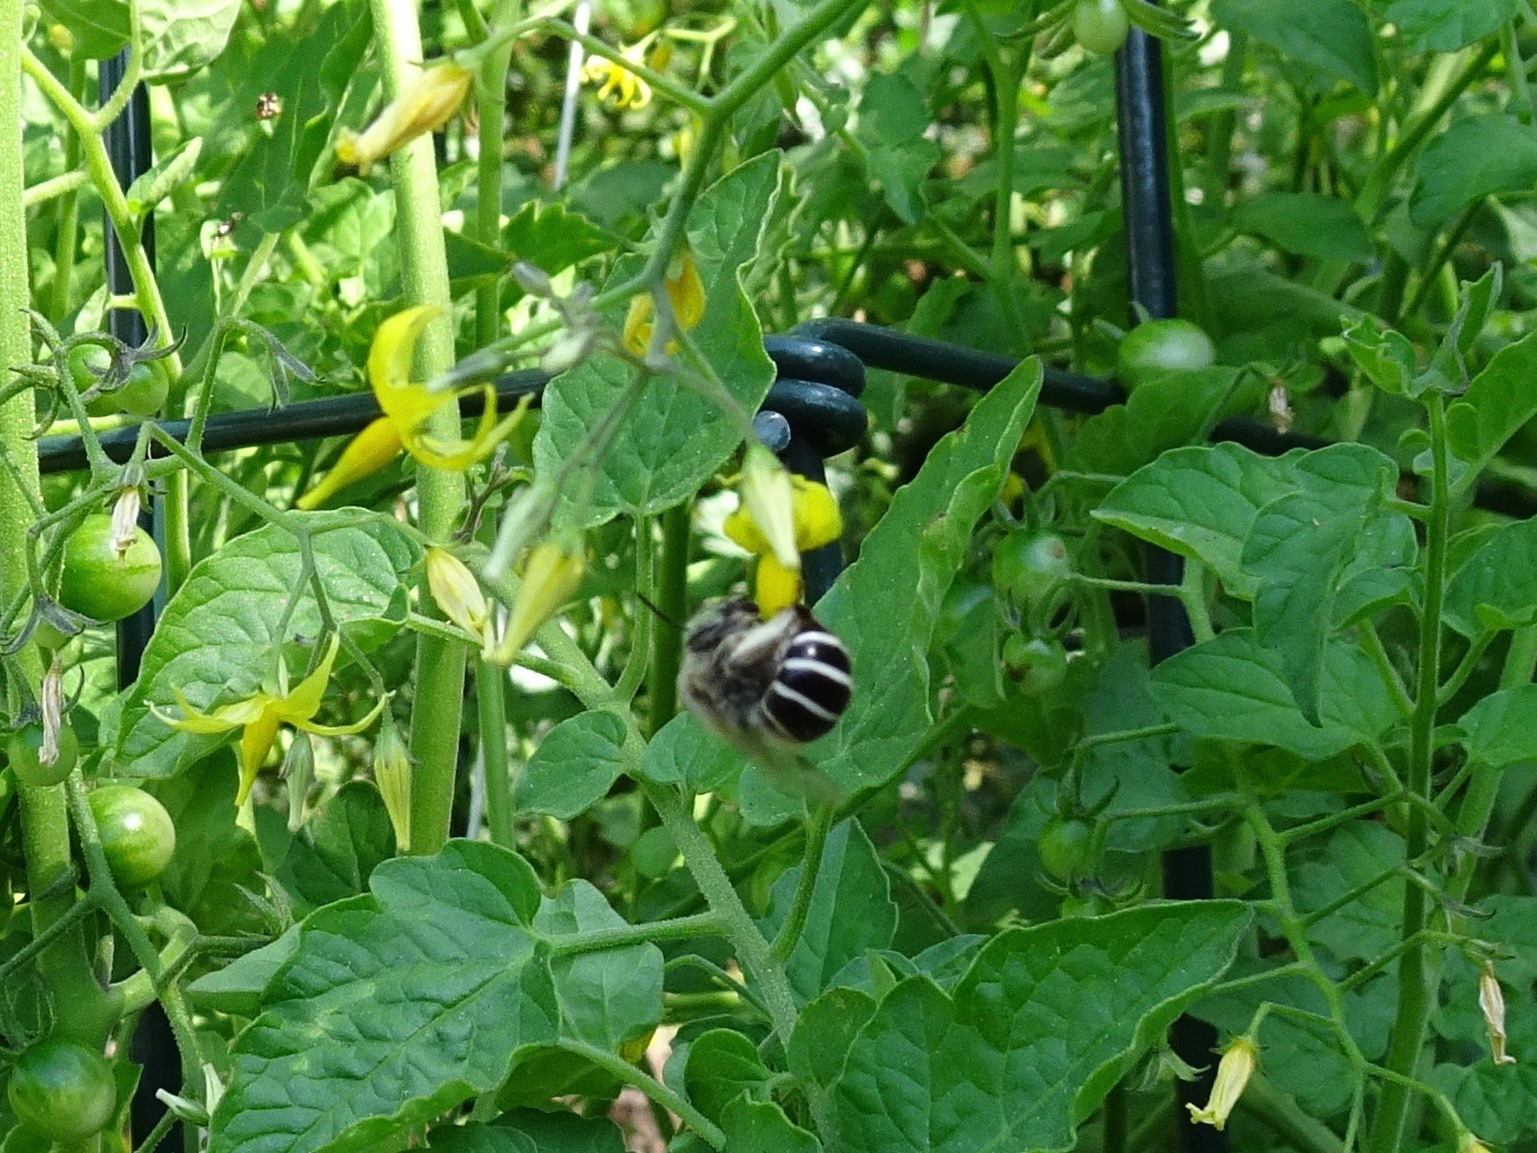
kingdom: Animalia
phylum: Arthropoda
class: Insecta
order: Hymenoptera
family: Apidae
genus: Anthophora
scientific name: Anthophora californica
